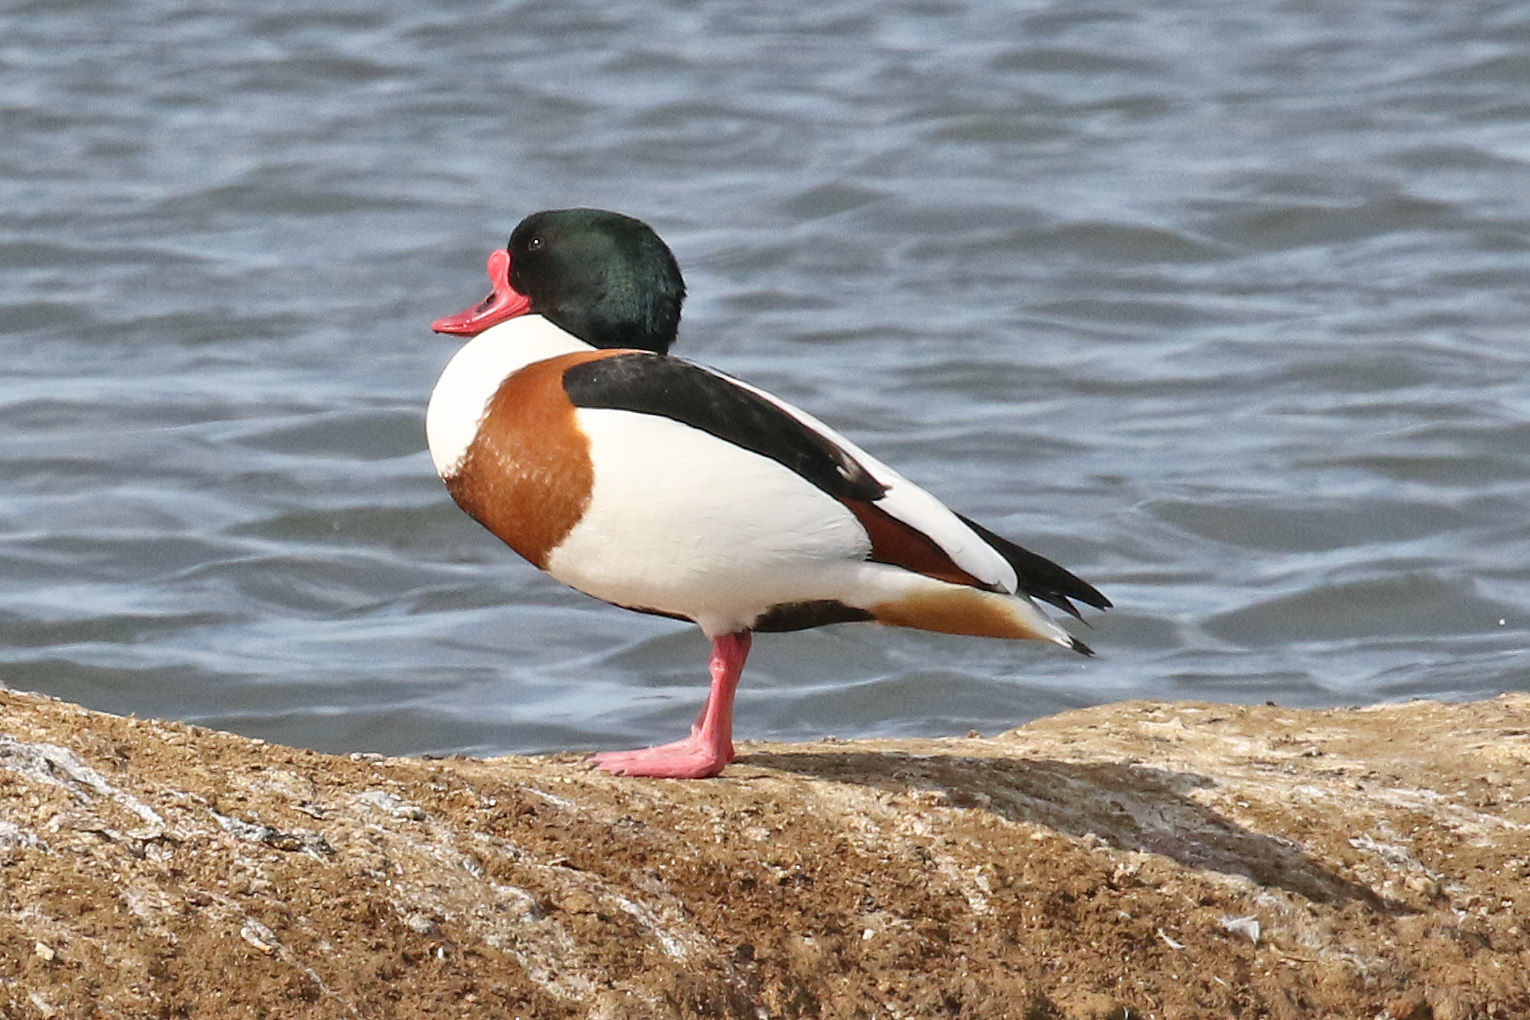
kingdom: Animalia
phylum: Chordata
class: Aves
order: Anseriformes
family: Anatidae
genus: Tadorna
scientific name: Tadorna tadorna
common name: Common shelduck
